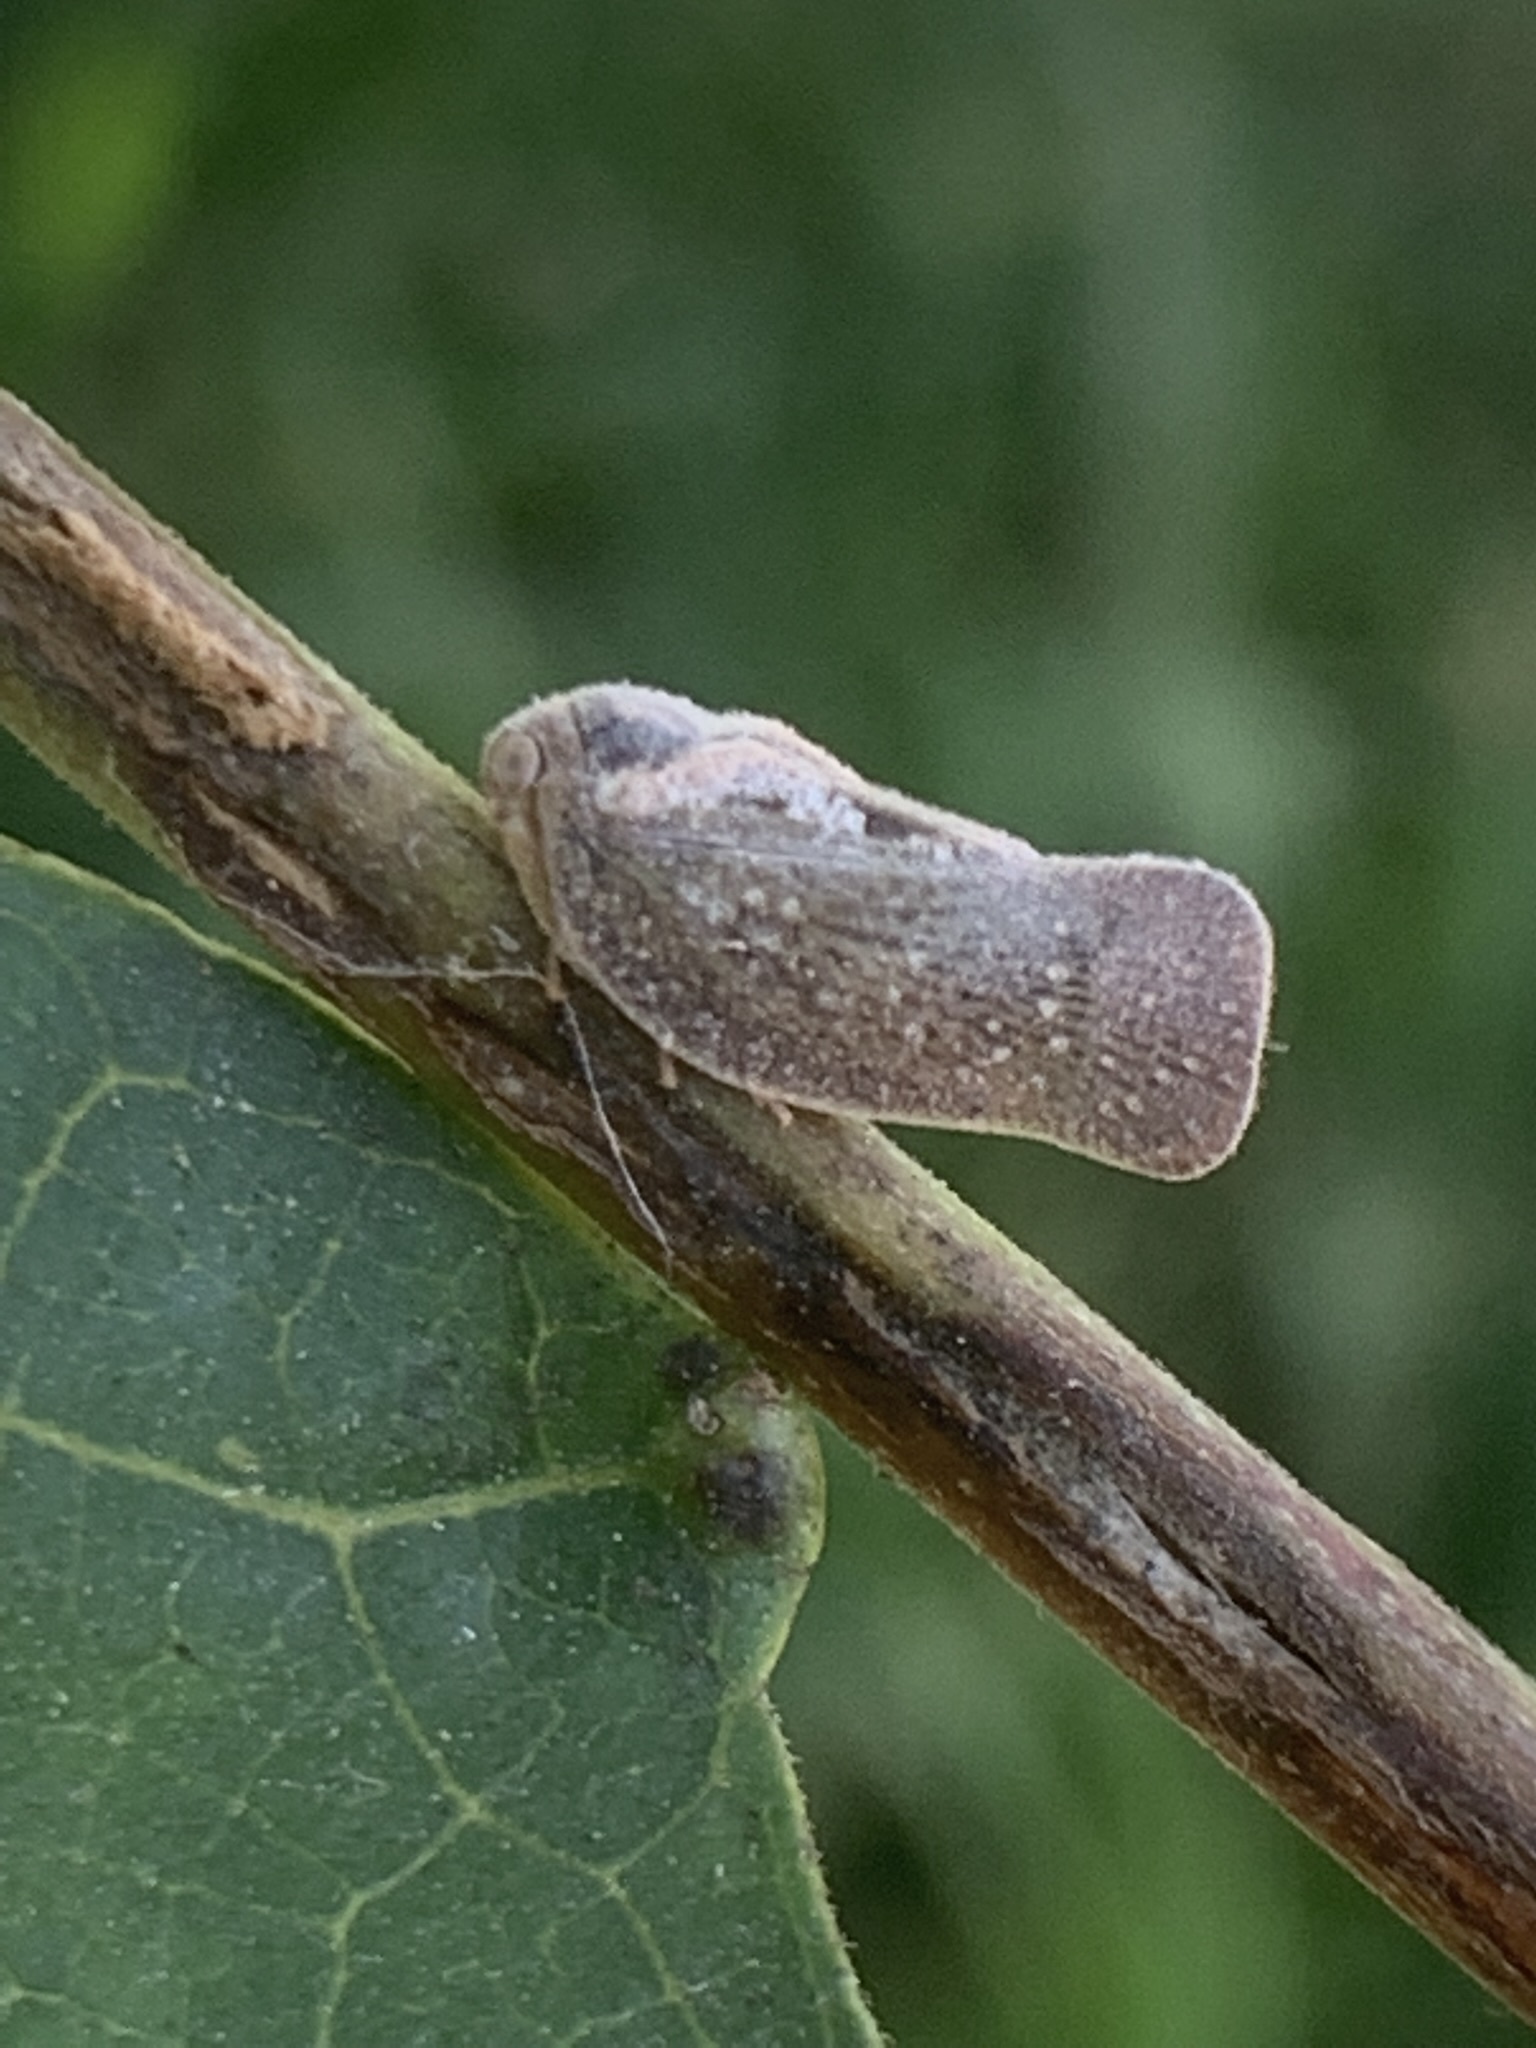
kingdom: Animalia
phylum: Arthropoda
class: Insecta
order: Hemiptera
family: Flatidae
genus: Epormenis
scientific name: Epormenis cestri
